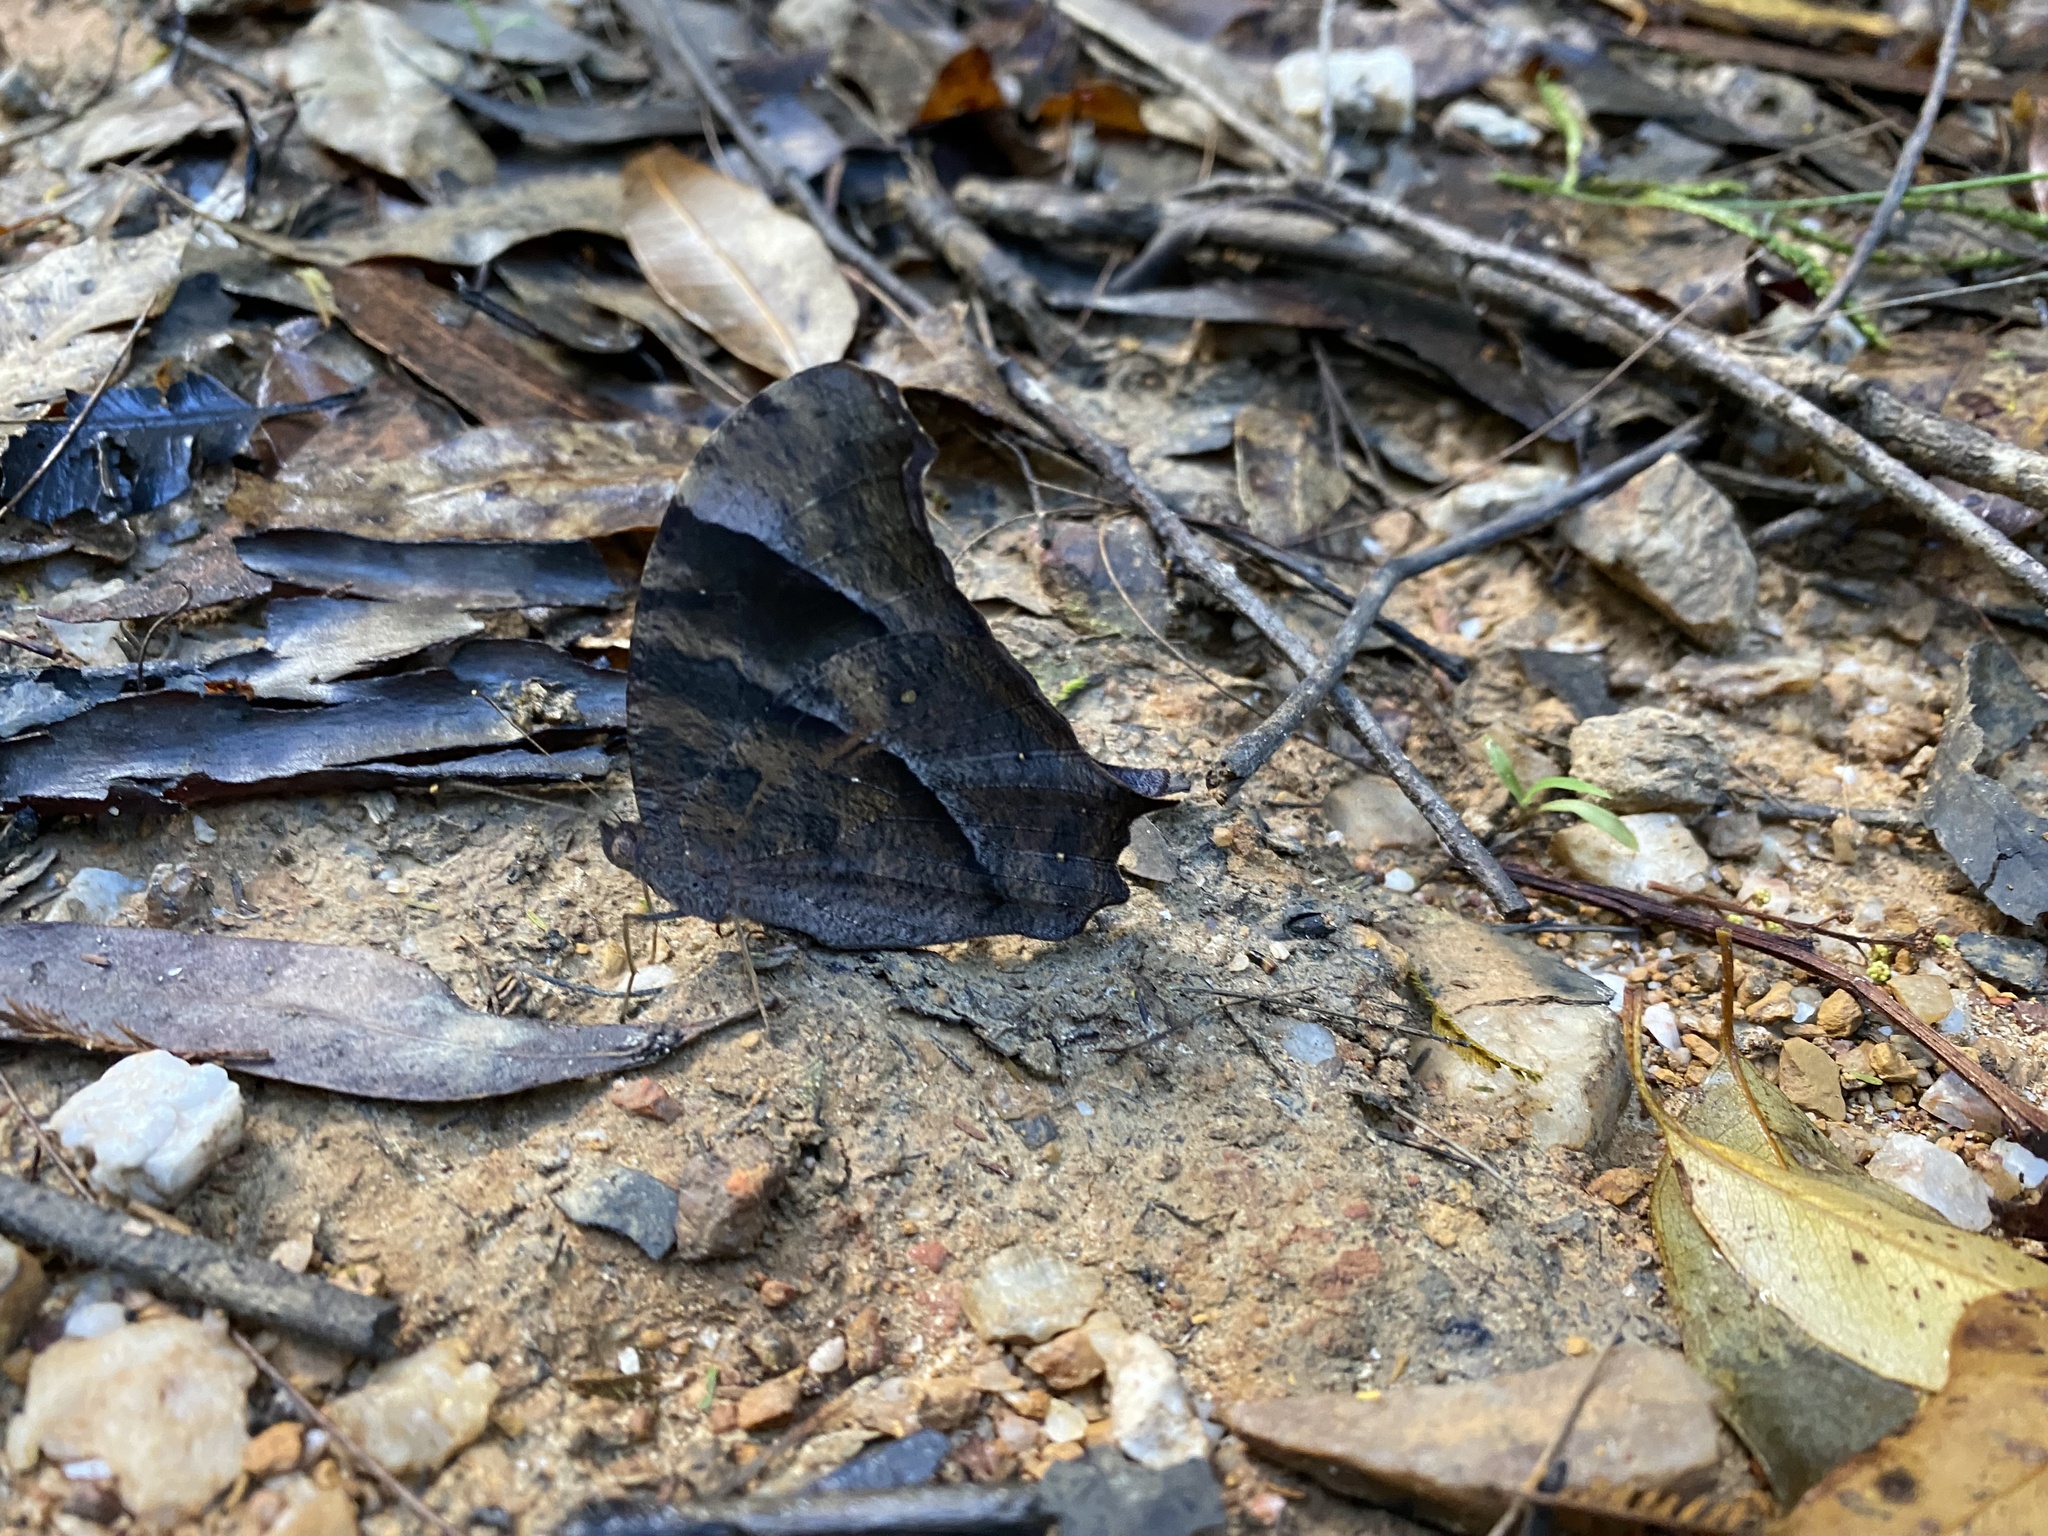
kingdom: Animalia
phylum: Arthropoda
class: Insecta
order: Lepidoptera
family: Nymphalidae
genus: Melanitis
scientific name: Melanitis leda
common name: Twilight brown
